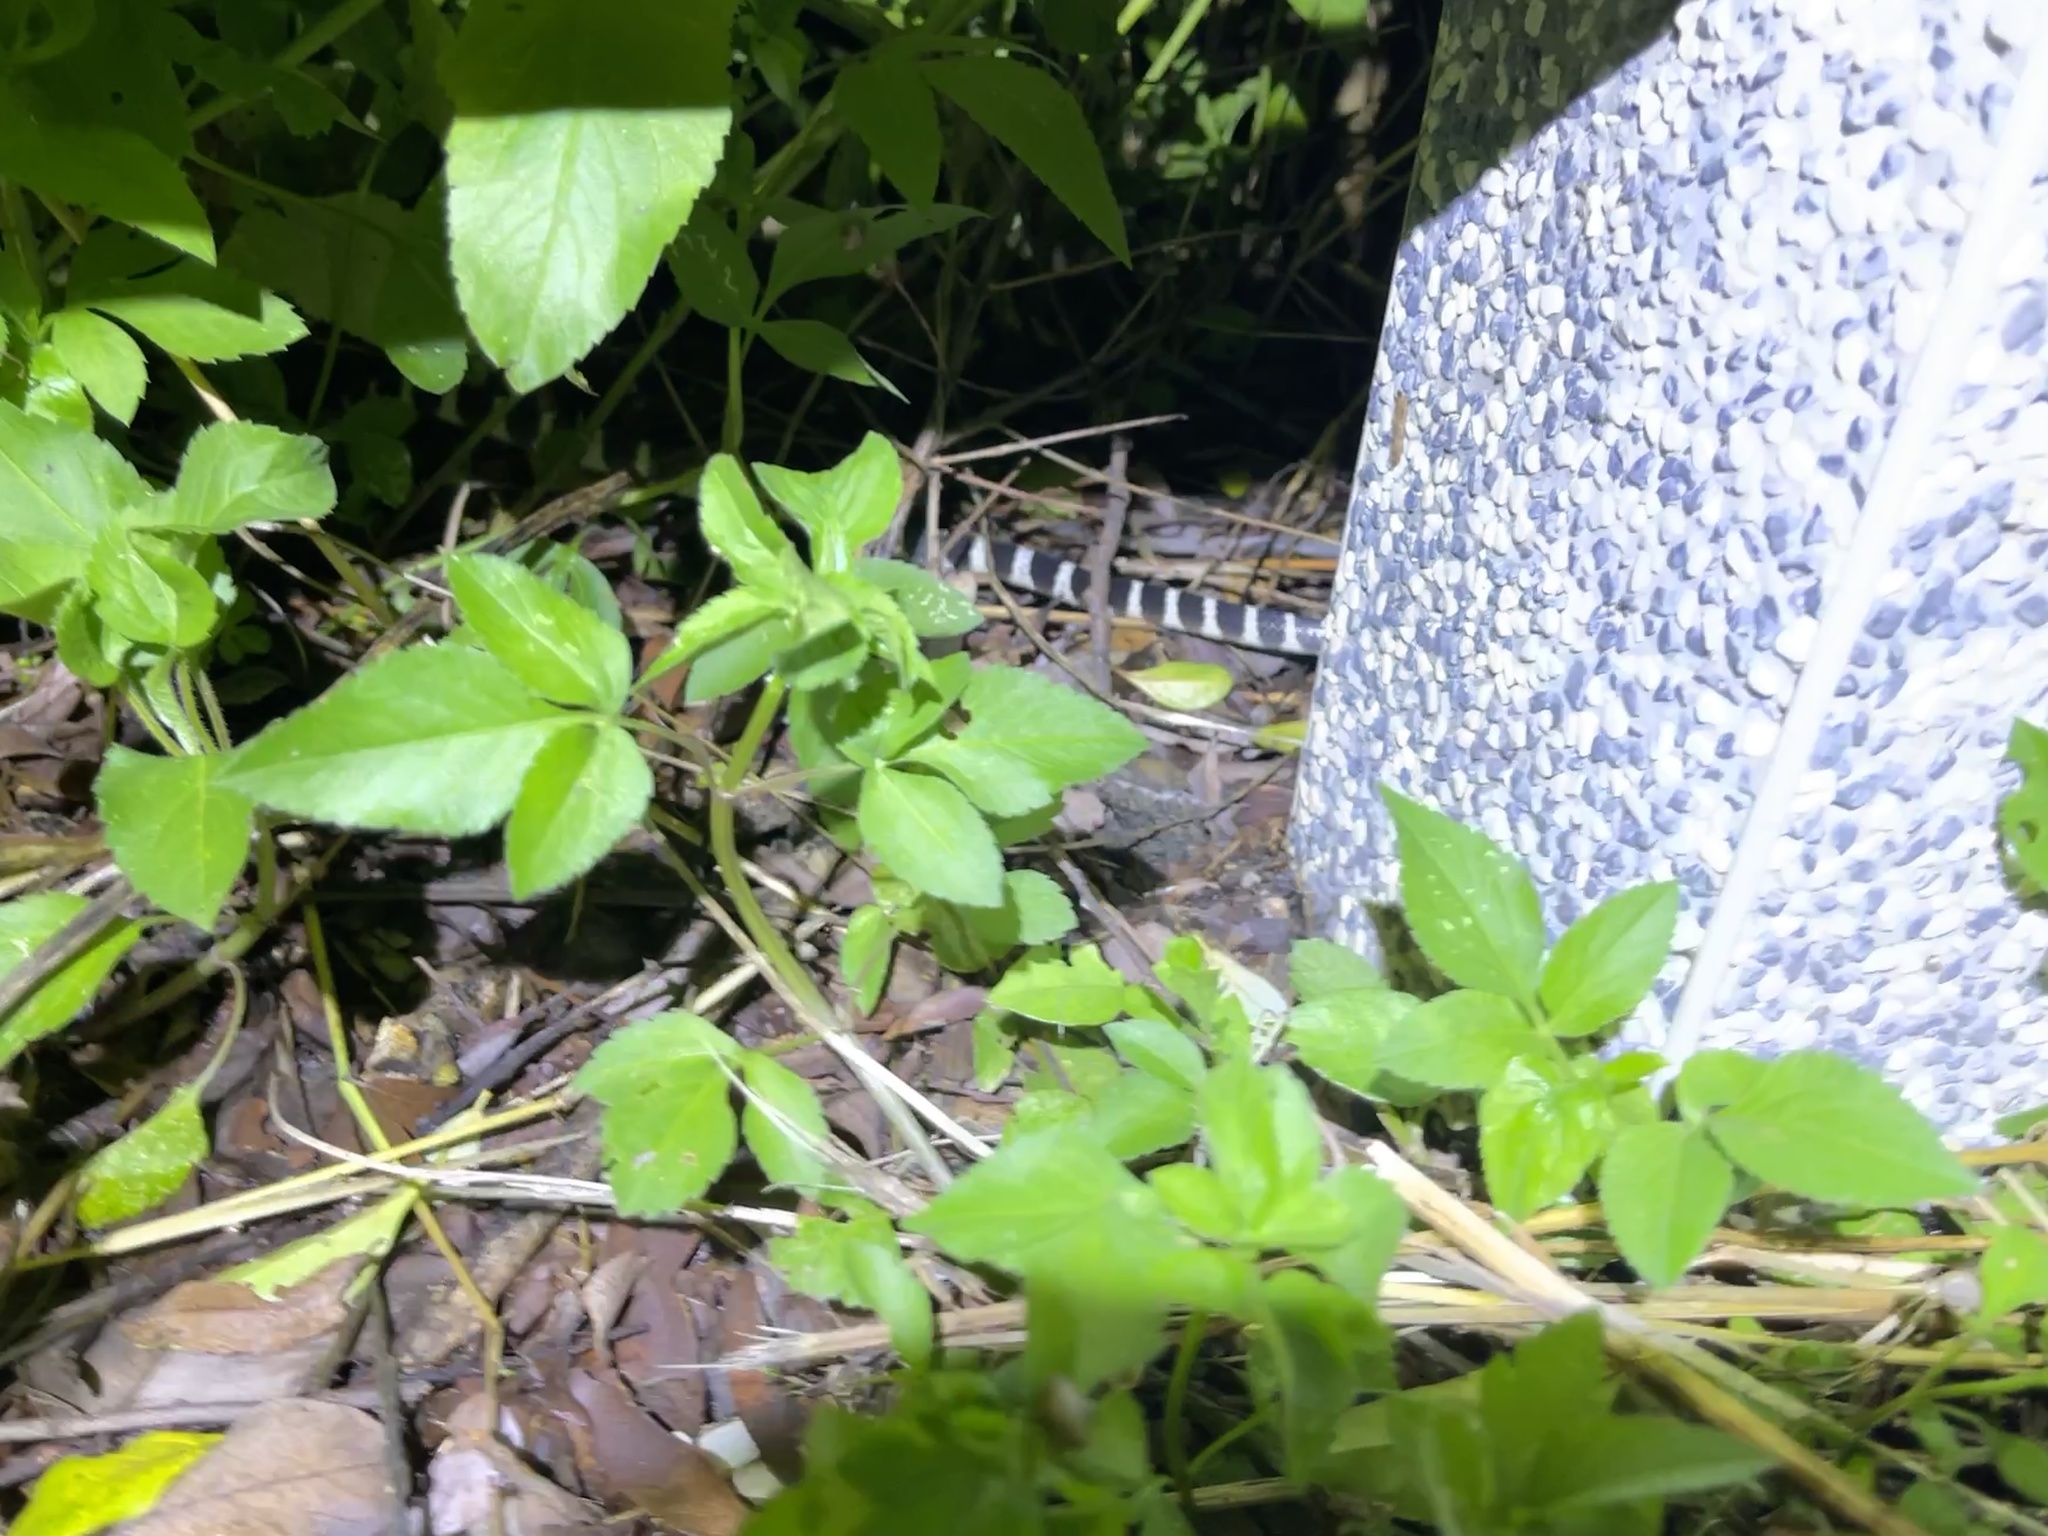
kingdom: Animalia
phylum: Chordata
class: Squamata
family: Elapidae
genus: Bungarus
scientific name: Bungarus multicinctus
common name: Many-banded krait
